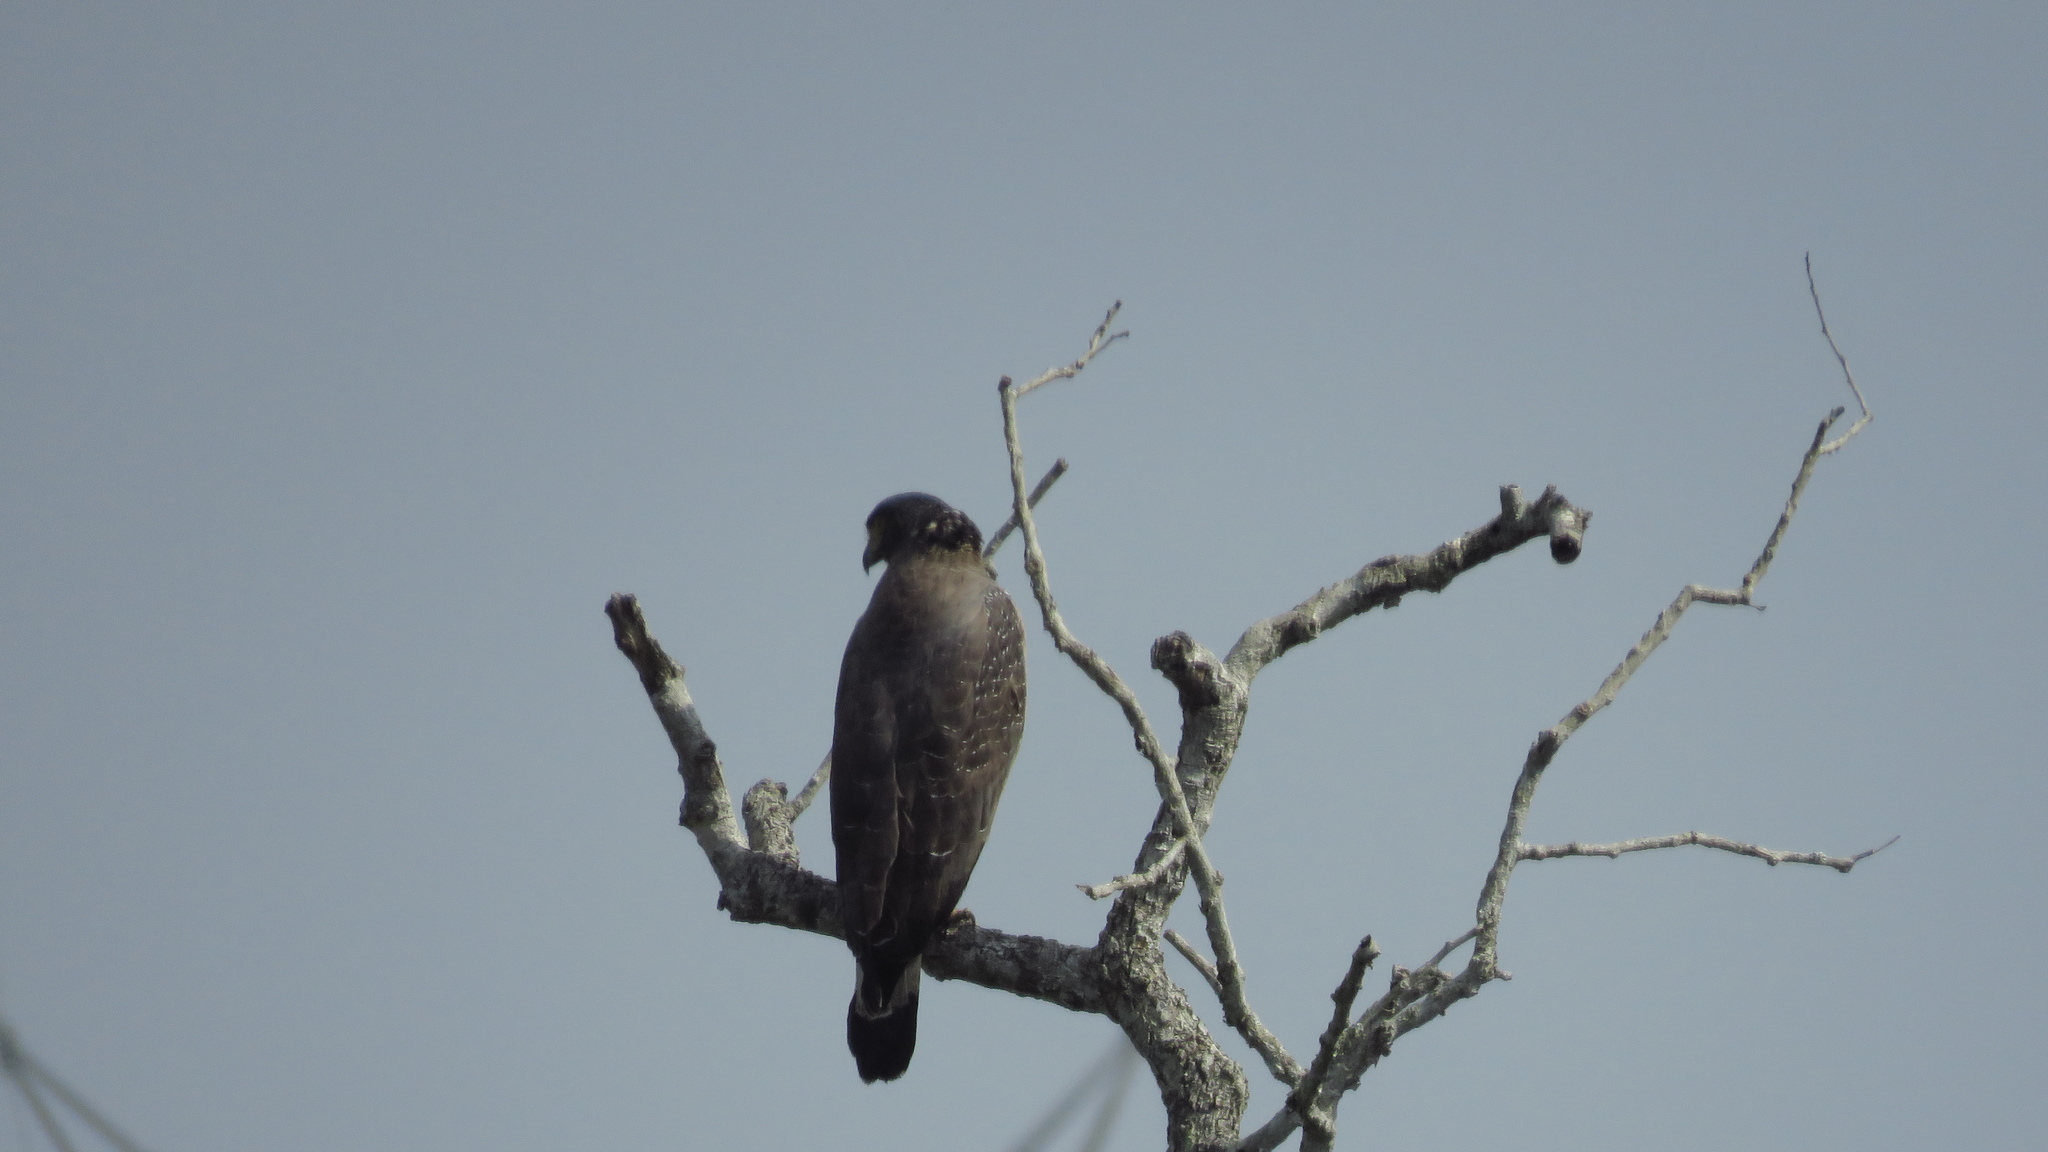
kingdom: Animalia
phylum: Chordata
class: Aves
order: Accipitriformes
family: Accipitridae
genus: Spilornis
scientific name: Spilornis cheela
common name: Crested serpent eagle
